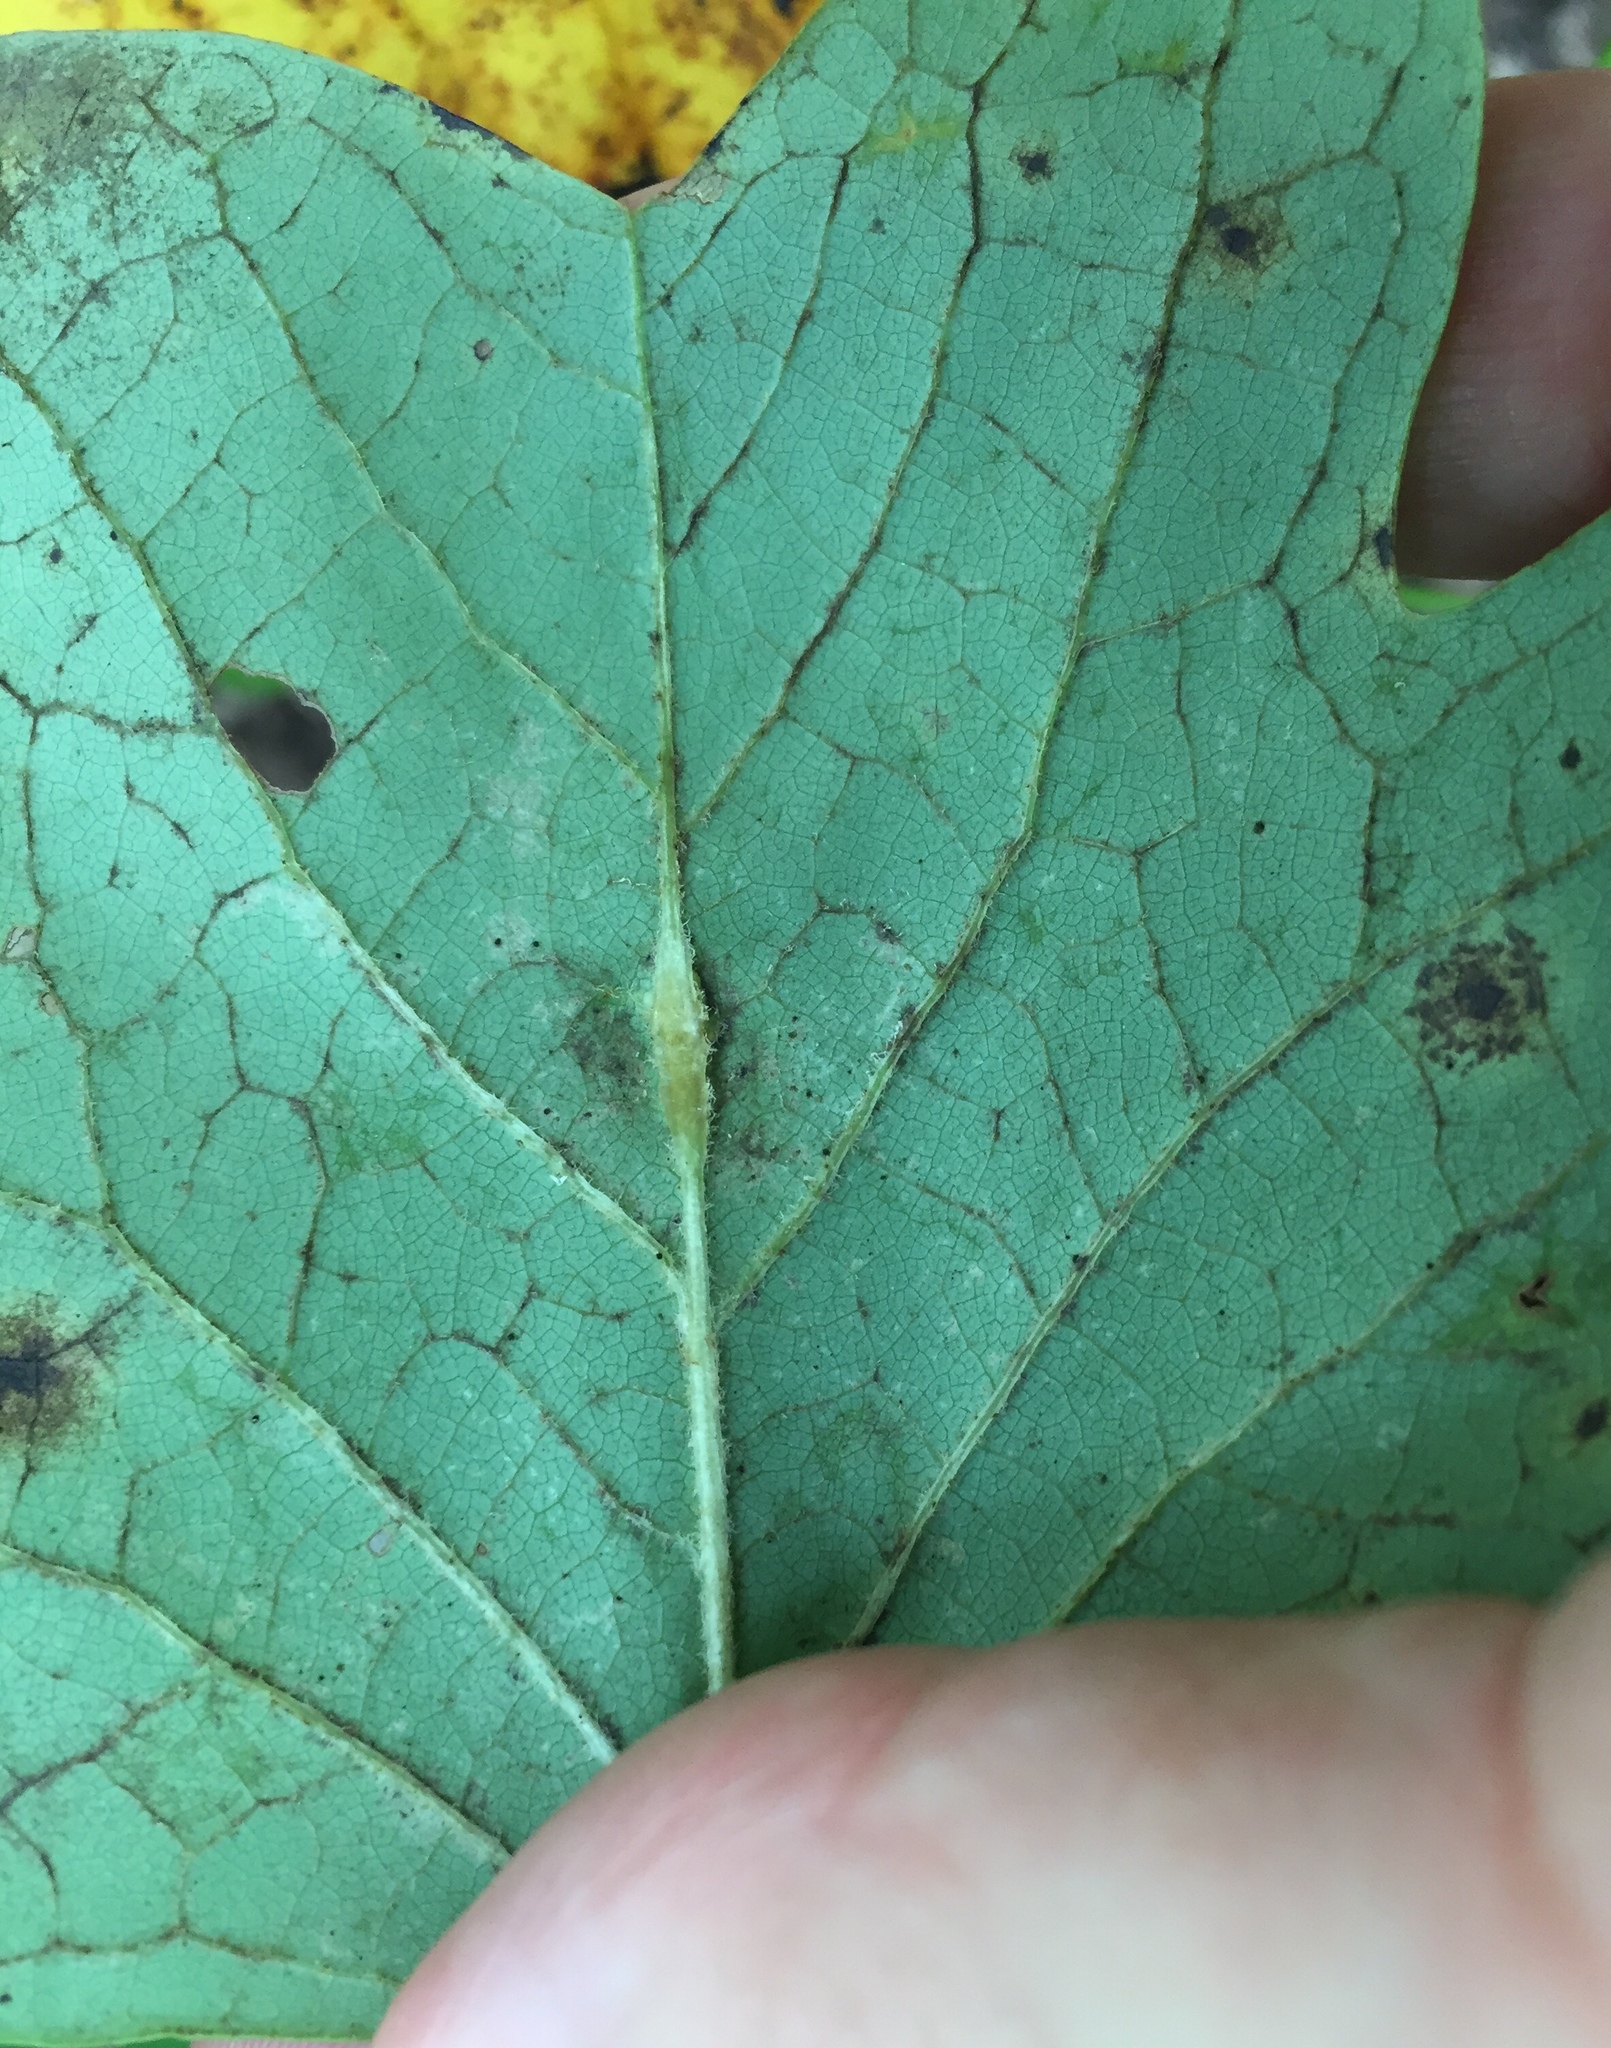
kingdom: Animalia
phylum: Arthropoda
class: Insecta
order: Diptera
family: Cecidomyiidae
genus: Resseliella
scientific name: Resseliella tulipiferae
